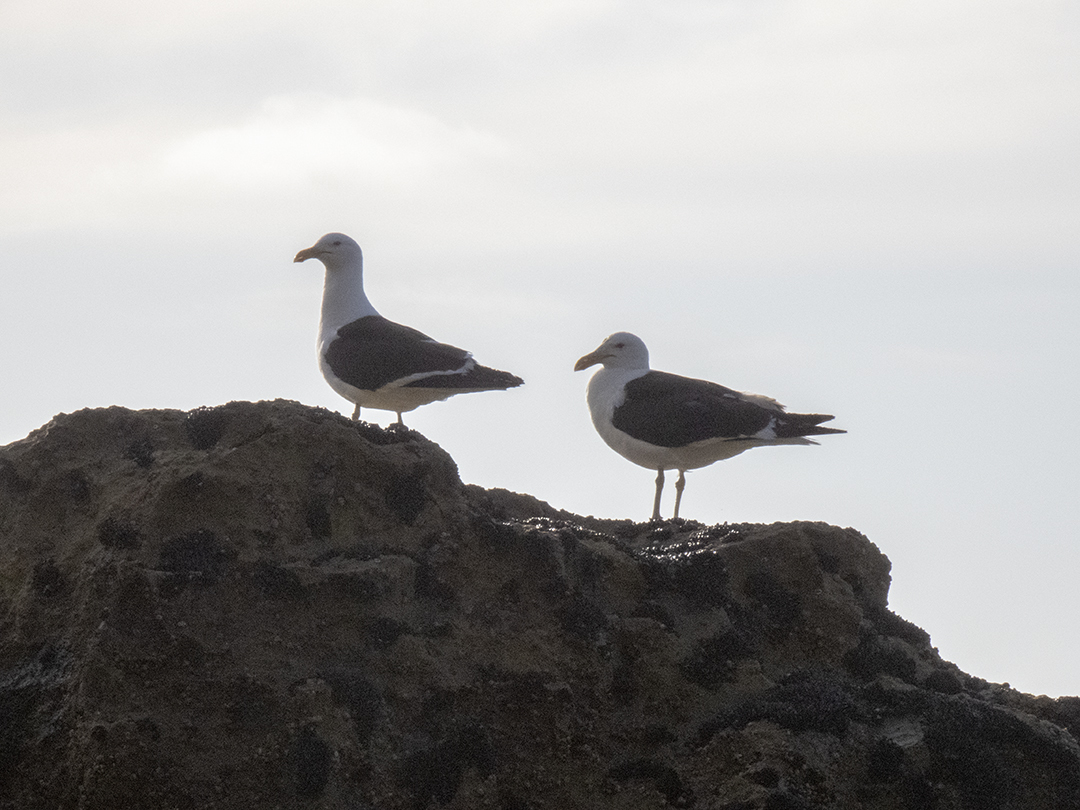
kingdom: Animalia
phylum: Chordata
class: Aves
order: Charadriiformes
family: Laridae
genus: Larus
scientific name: Larus dominicanus
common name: Kelp gull
